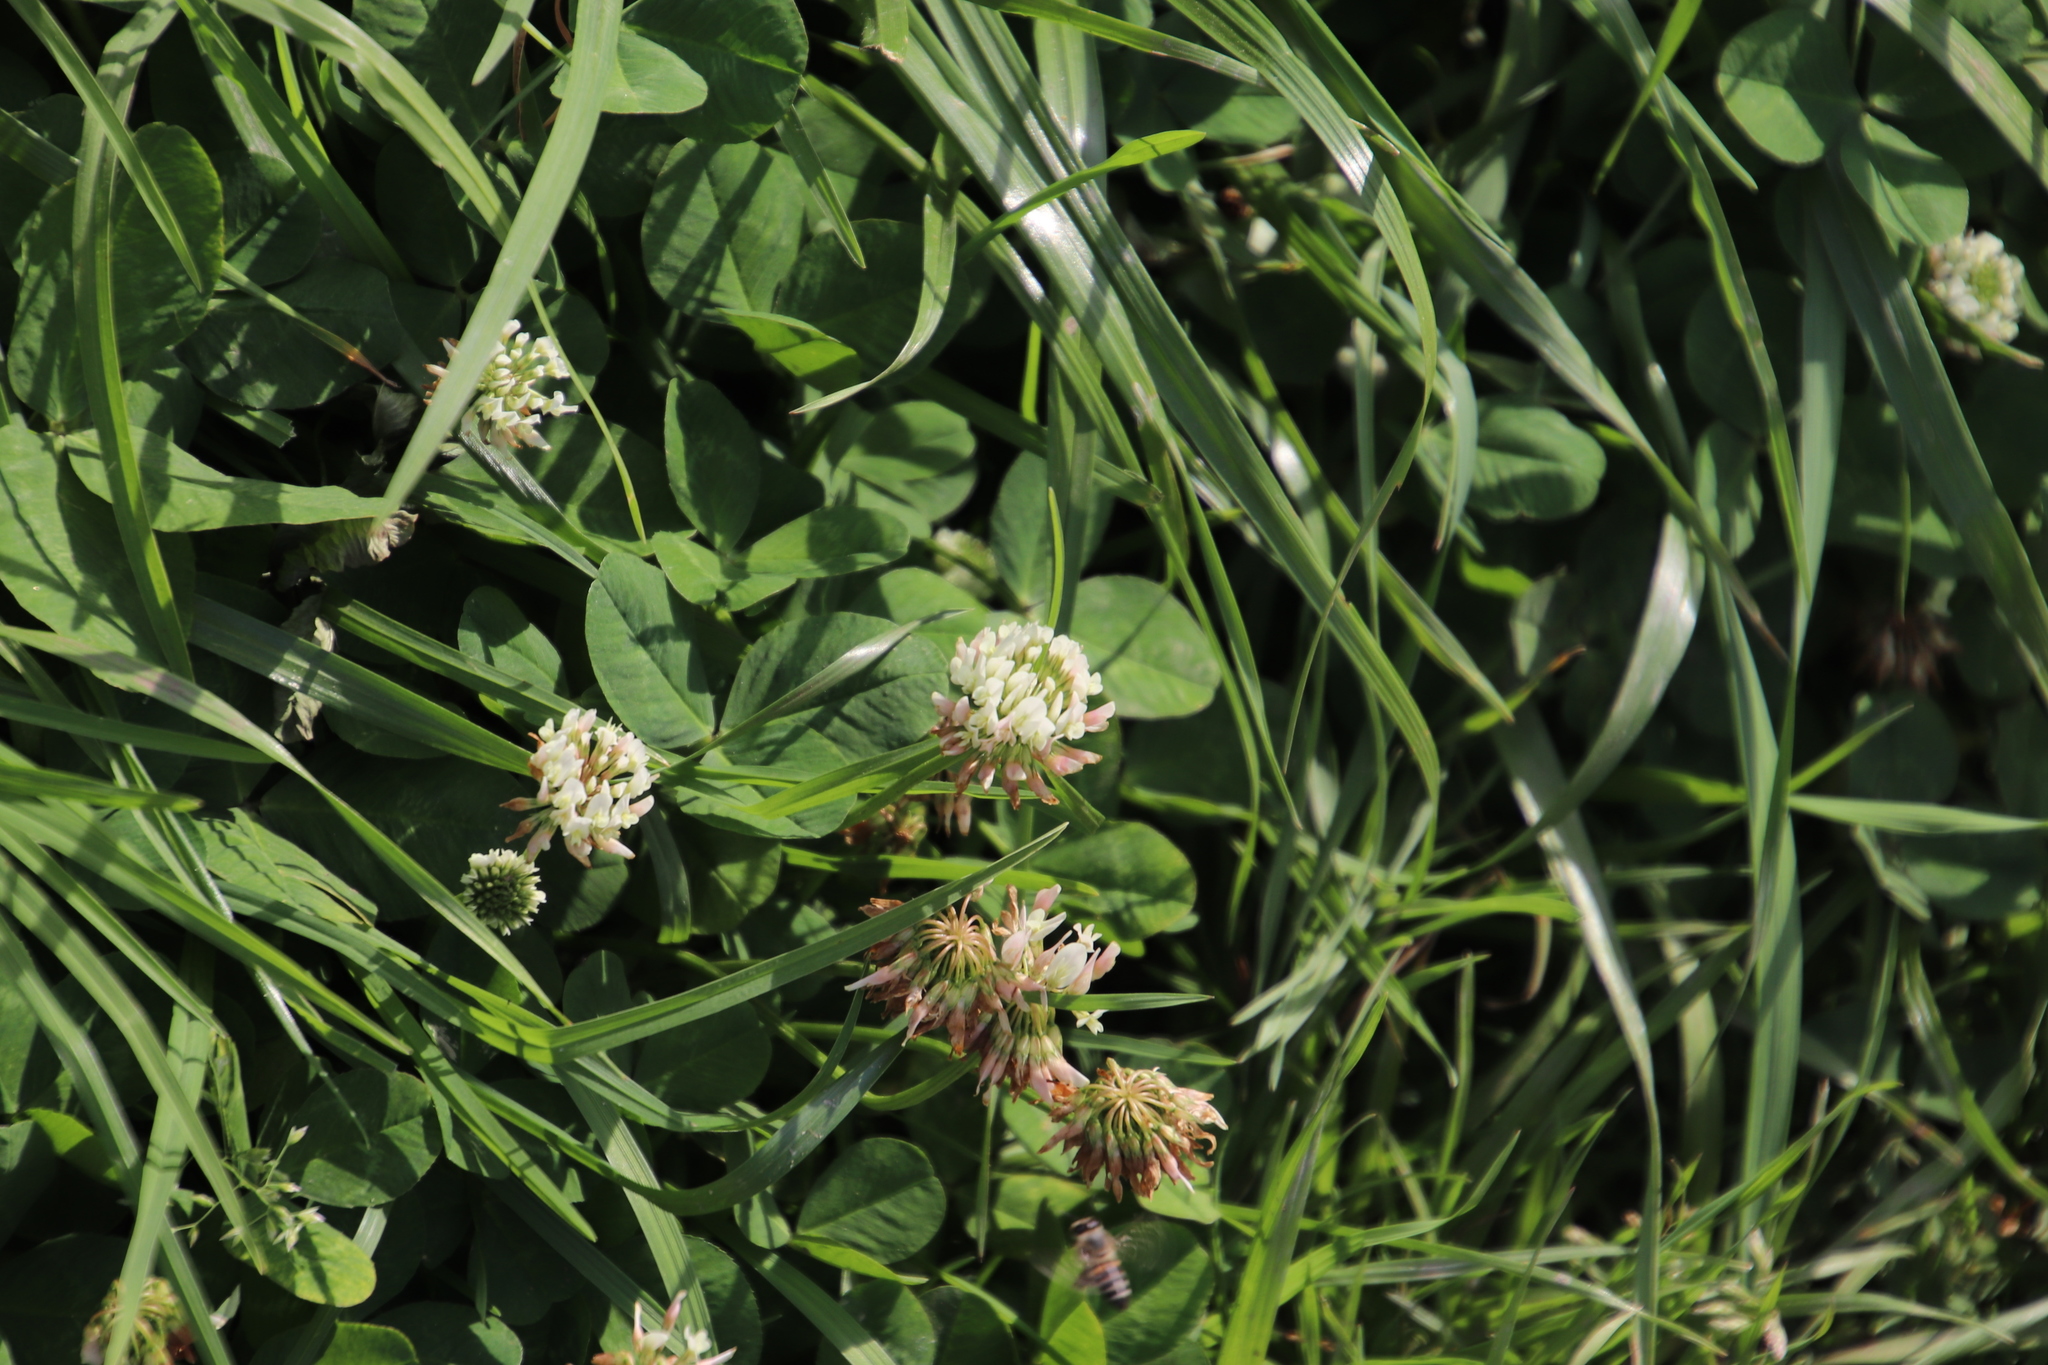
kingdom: Plantae
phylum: Tracheophyta
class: Magnoliopsida
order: Fabales
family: Fabaceae
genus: Trifolium
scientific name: Trifolium repens
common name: White clover
